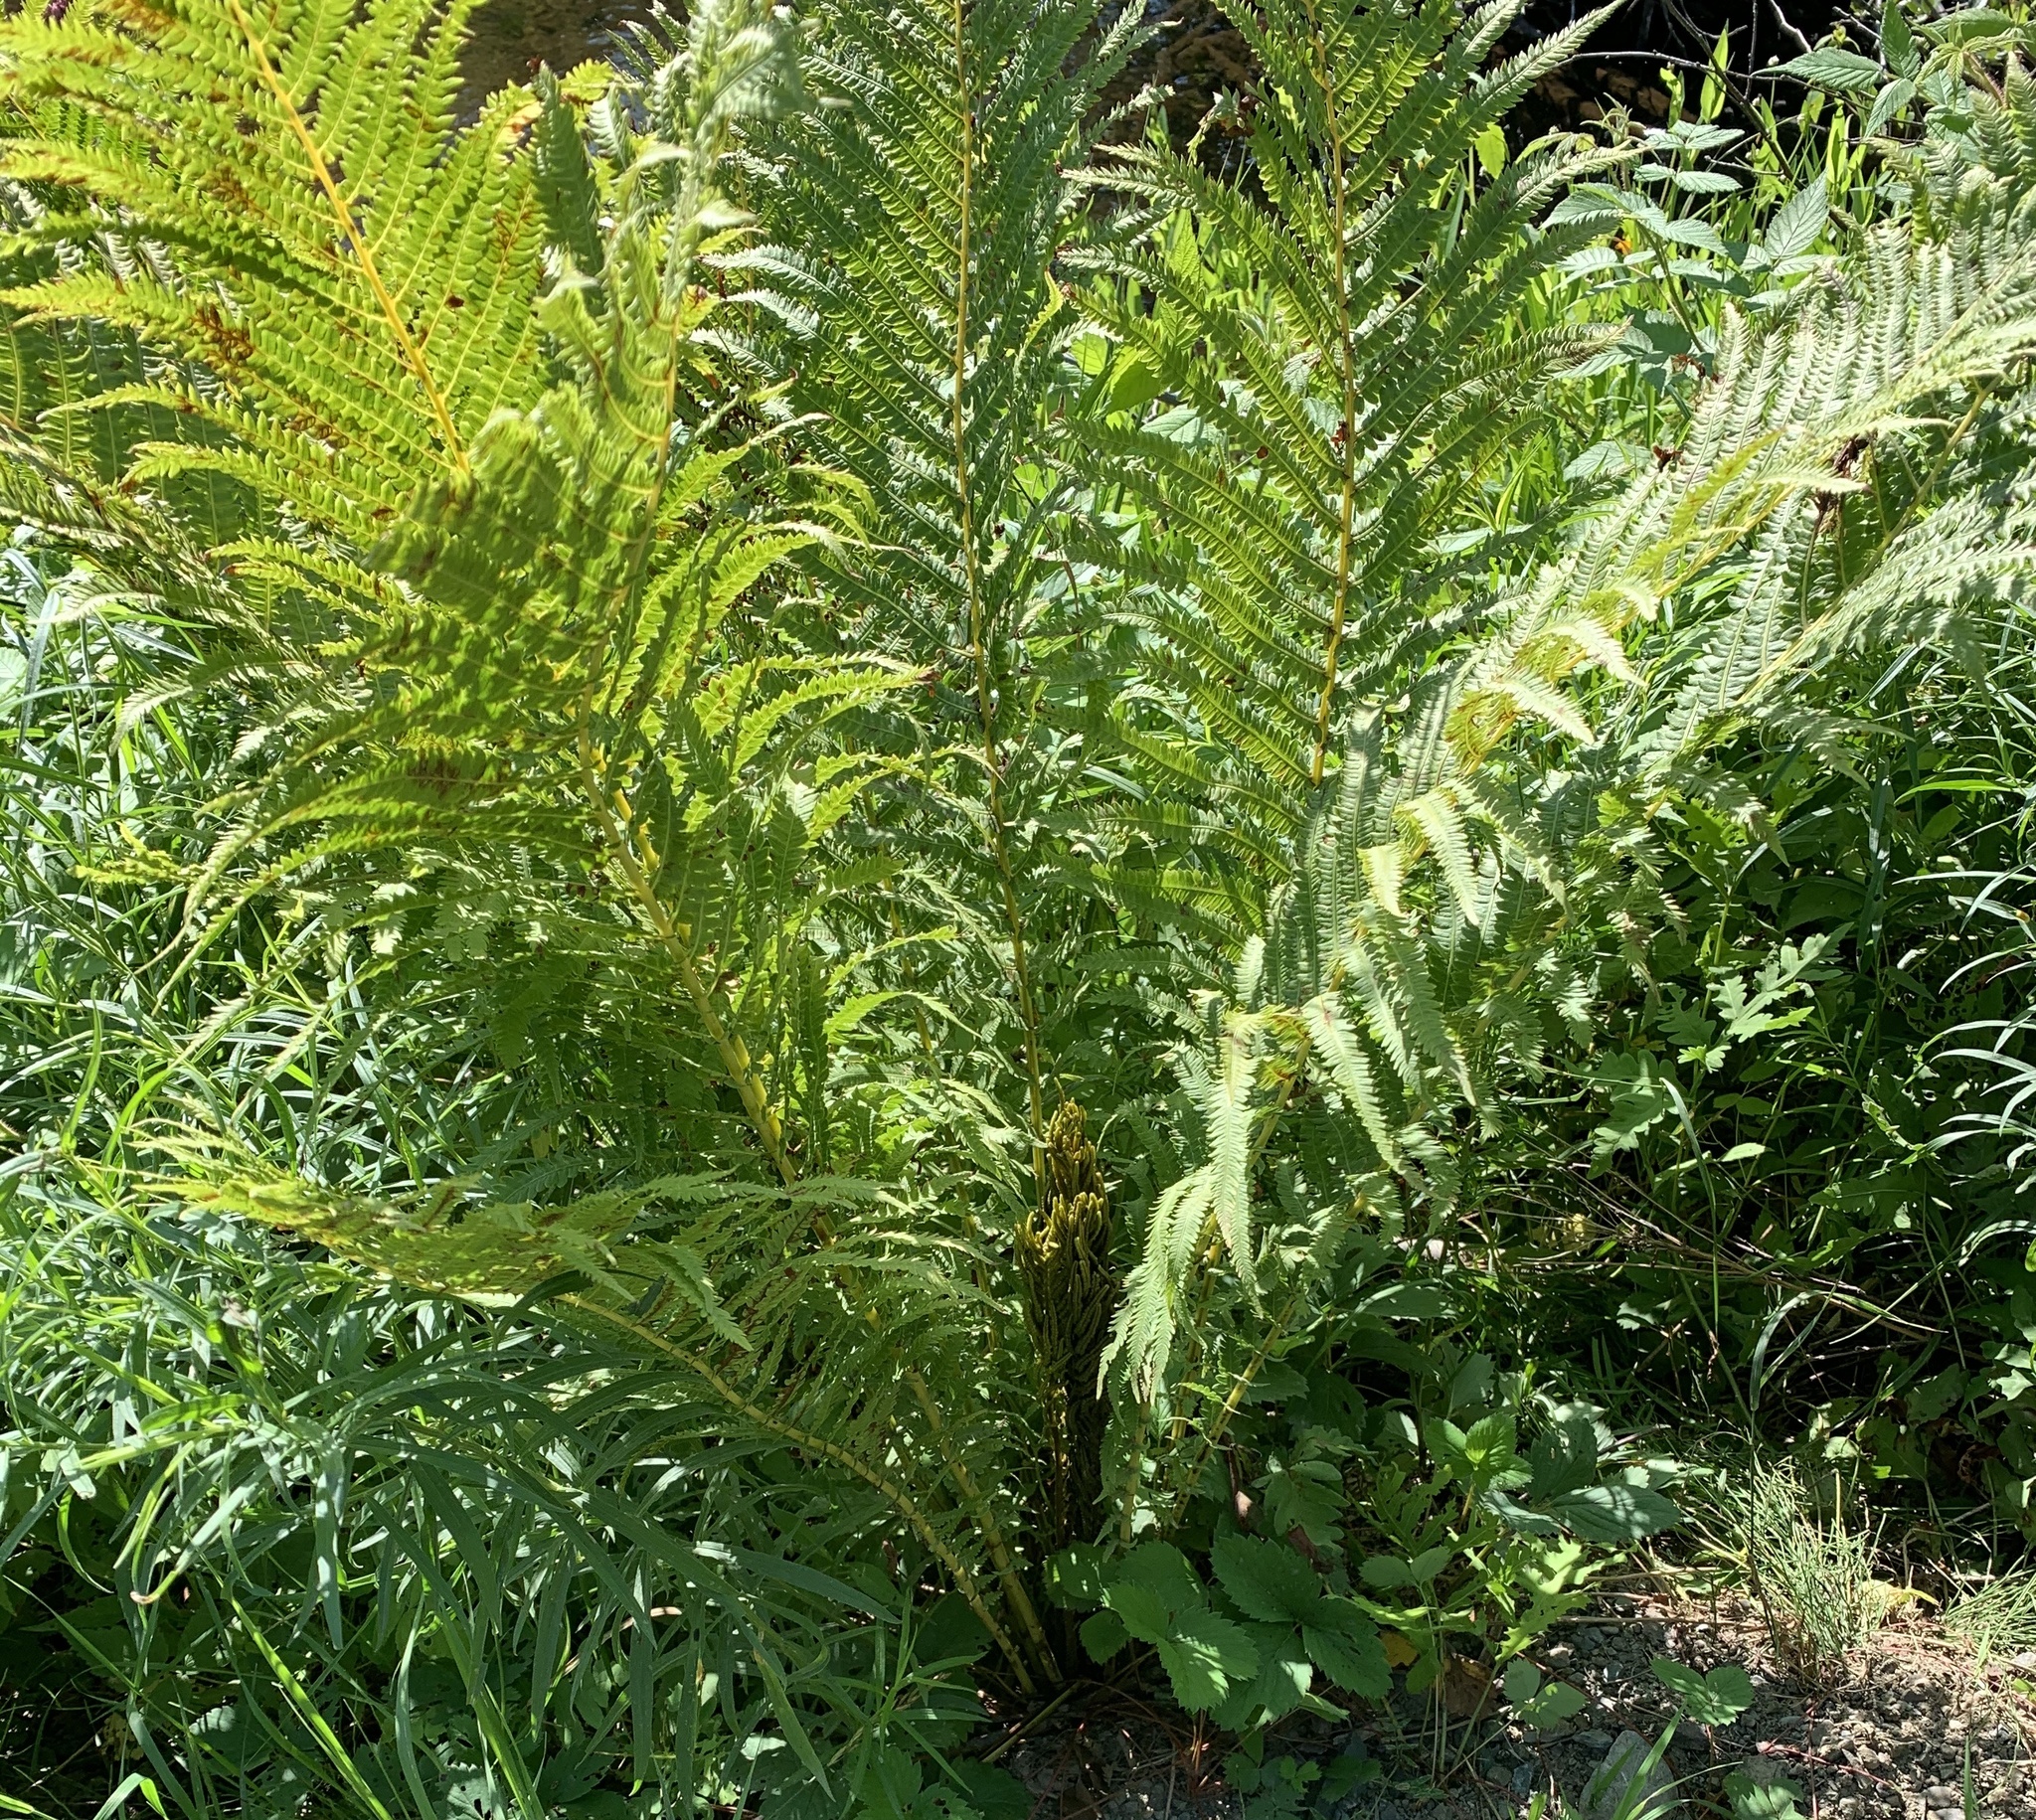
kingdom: Plantae
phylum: Tracheophyta
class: Polypodiopsida
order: Polypodiales
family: Onocleaceae
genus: Matteuccia
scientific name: Matteuccia struthiopteris
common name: Ostrich fern
